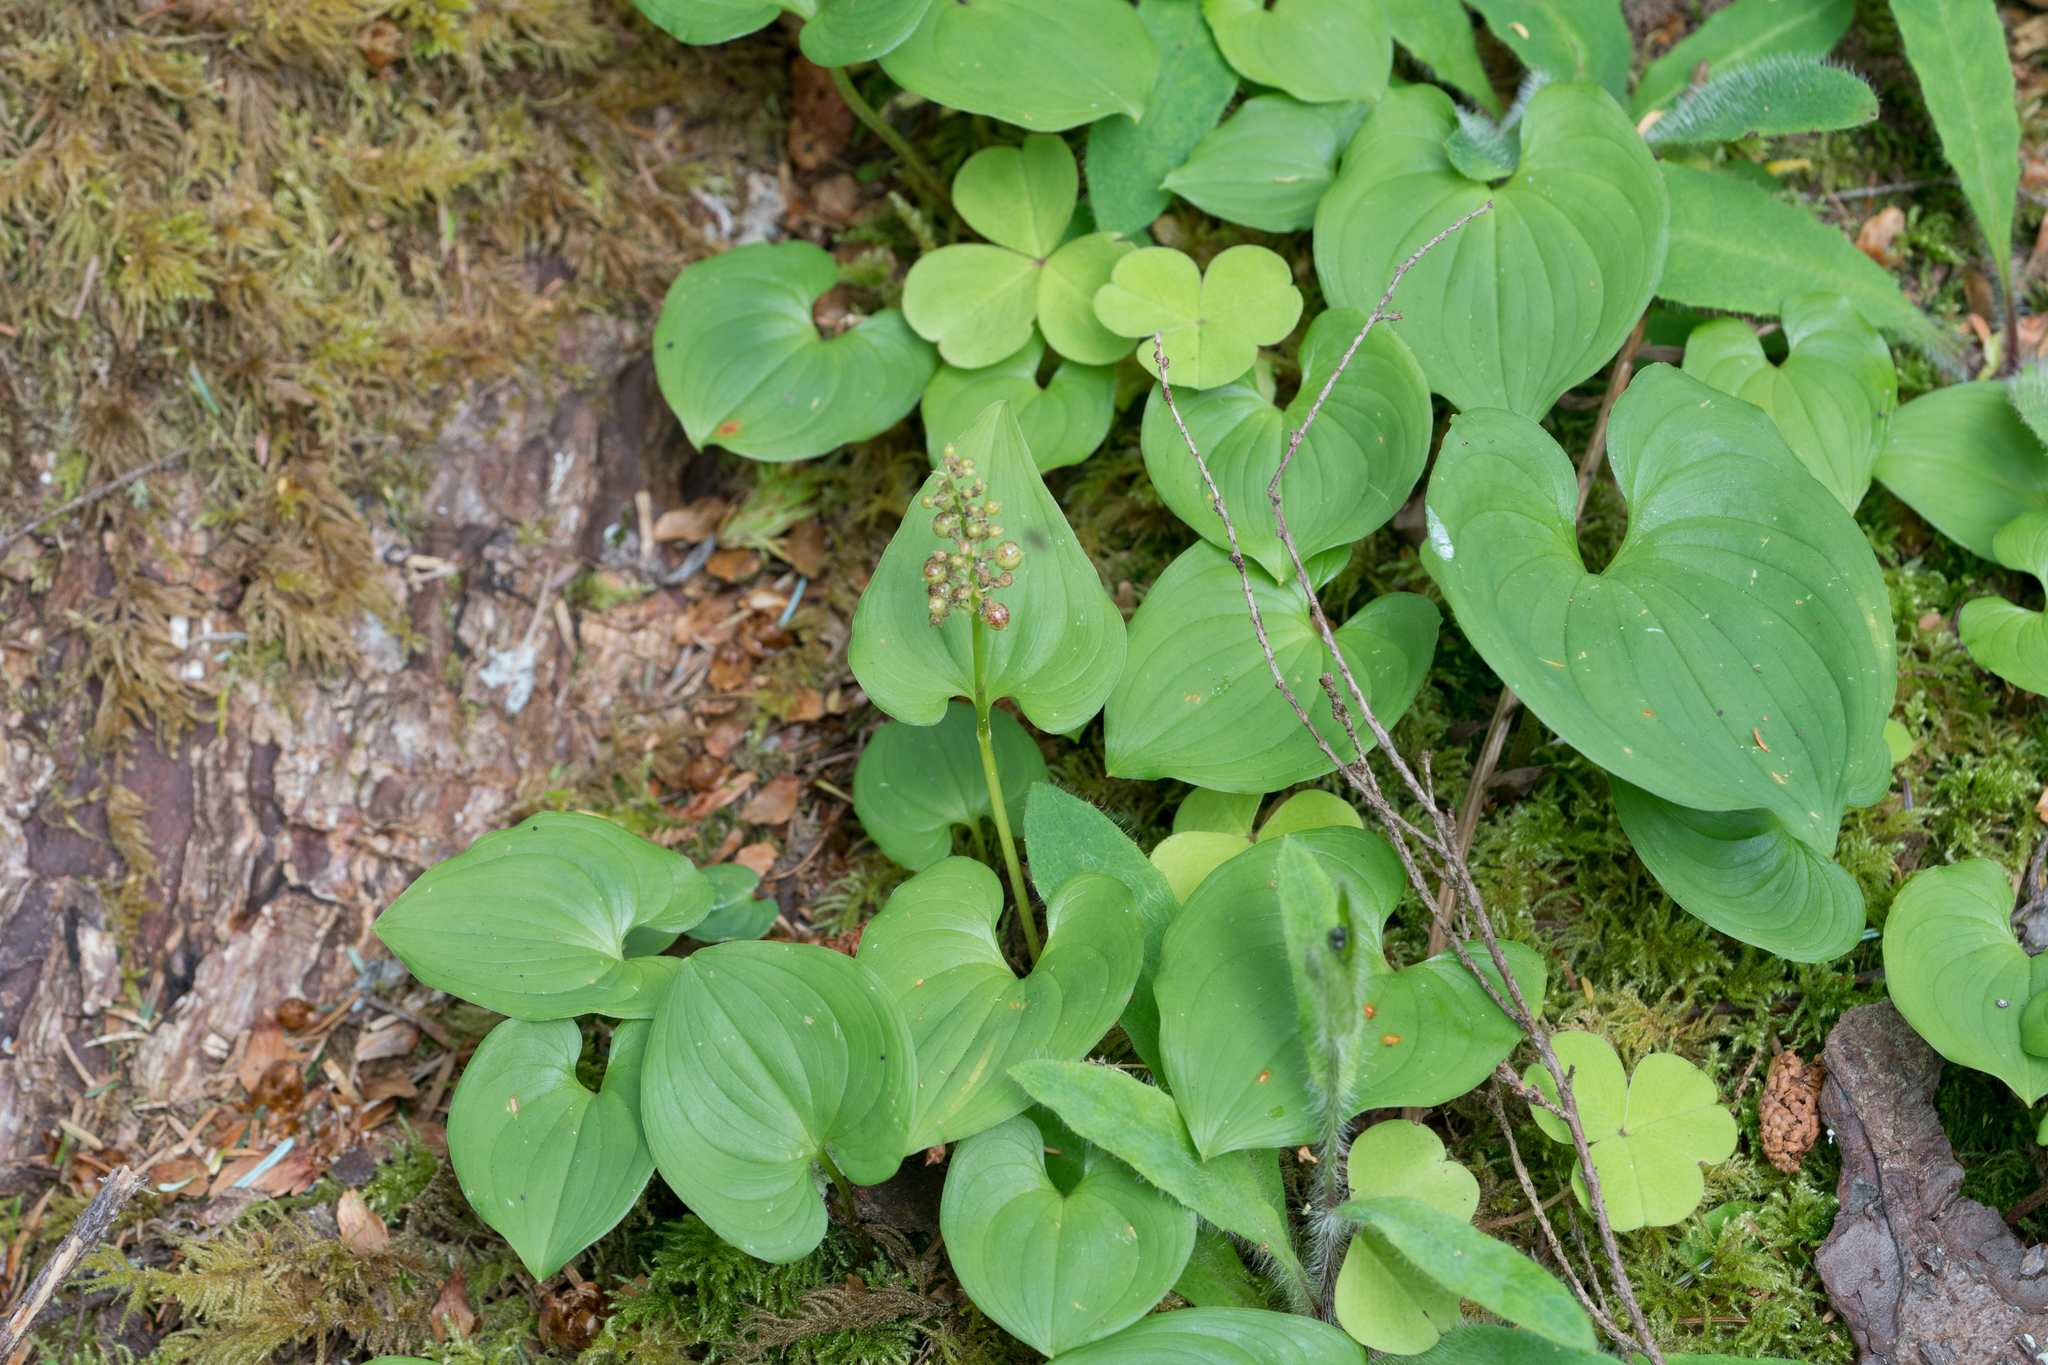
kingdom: Plantae
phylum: Tracheophyta
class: Liliopsida
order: Asparagales
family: Asparagaceae
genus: Maianthemum
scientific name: Maianthemum dilatatum
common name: False lily-of-the-valley
